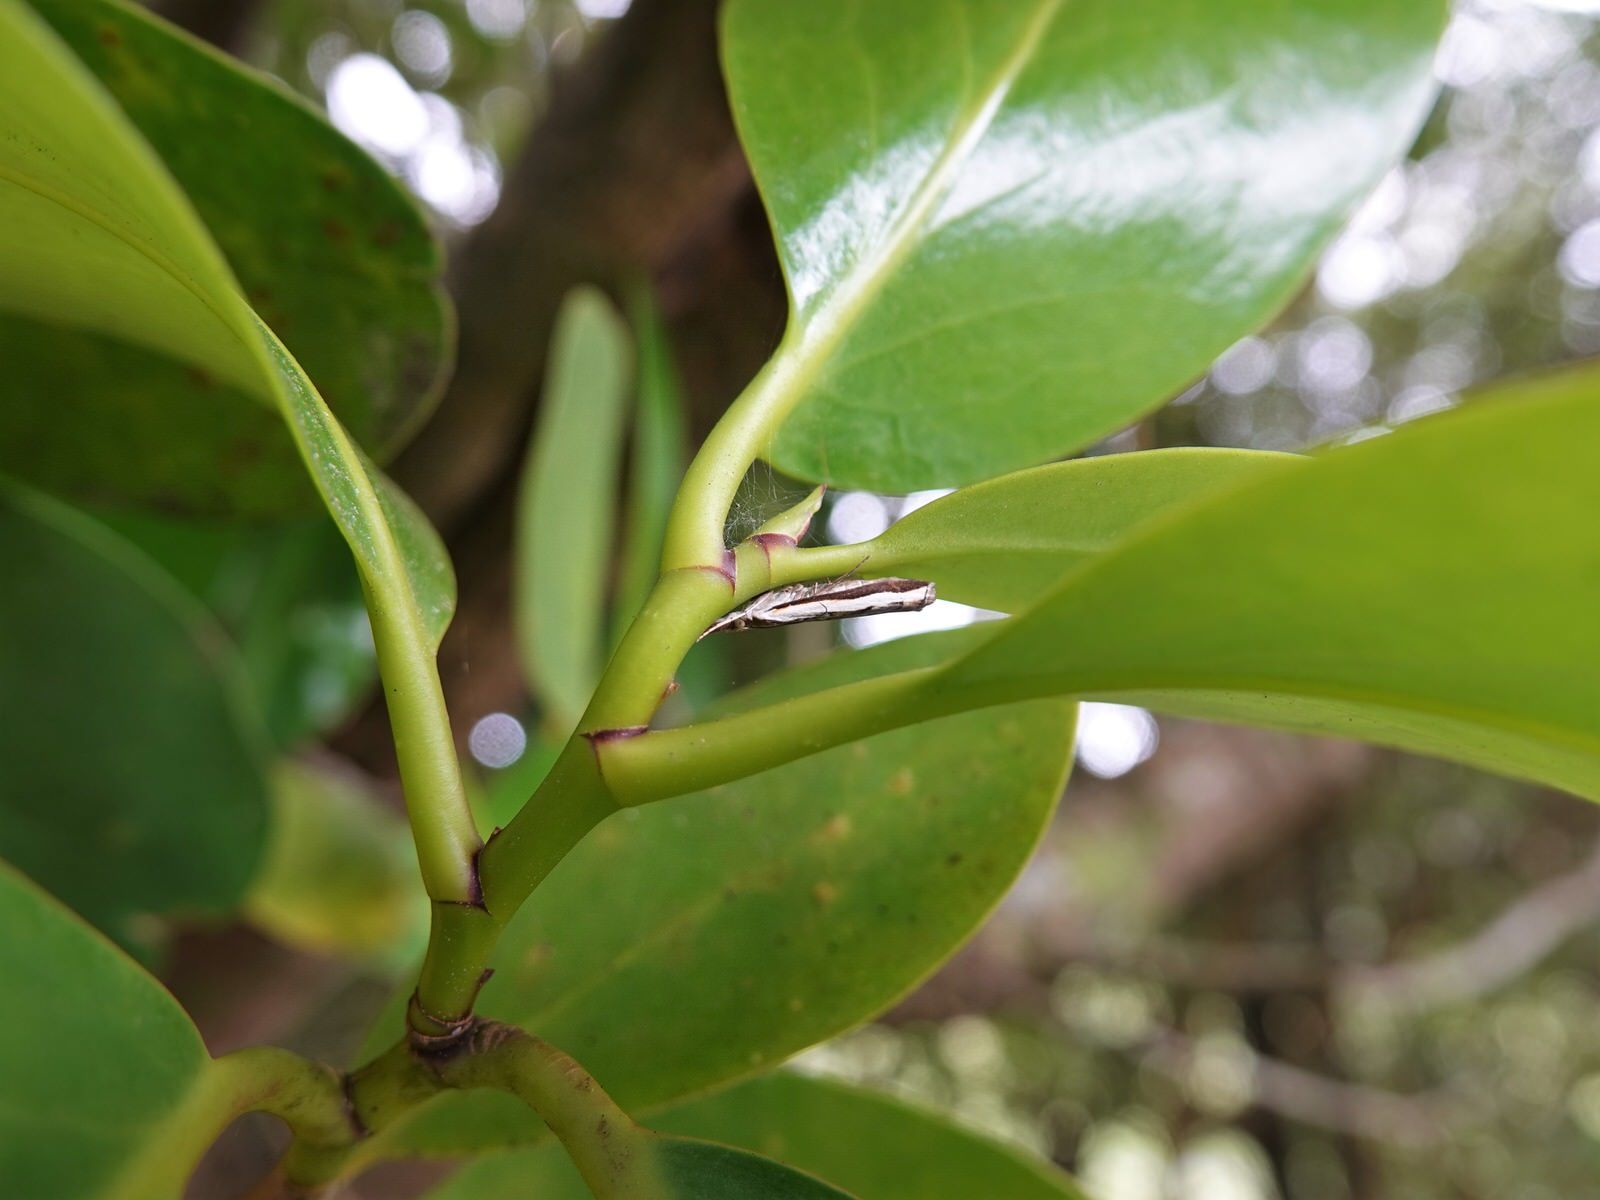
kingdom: Animalia
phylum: Arthropoda
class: Insecta
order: Lepidoptera
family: Crambidae
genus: Orocrambus
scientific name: Orocrambus flexuosellus
